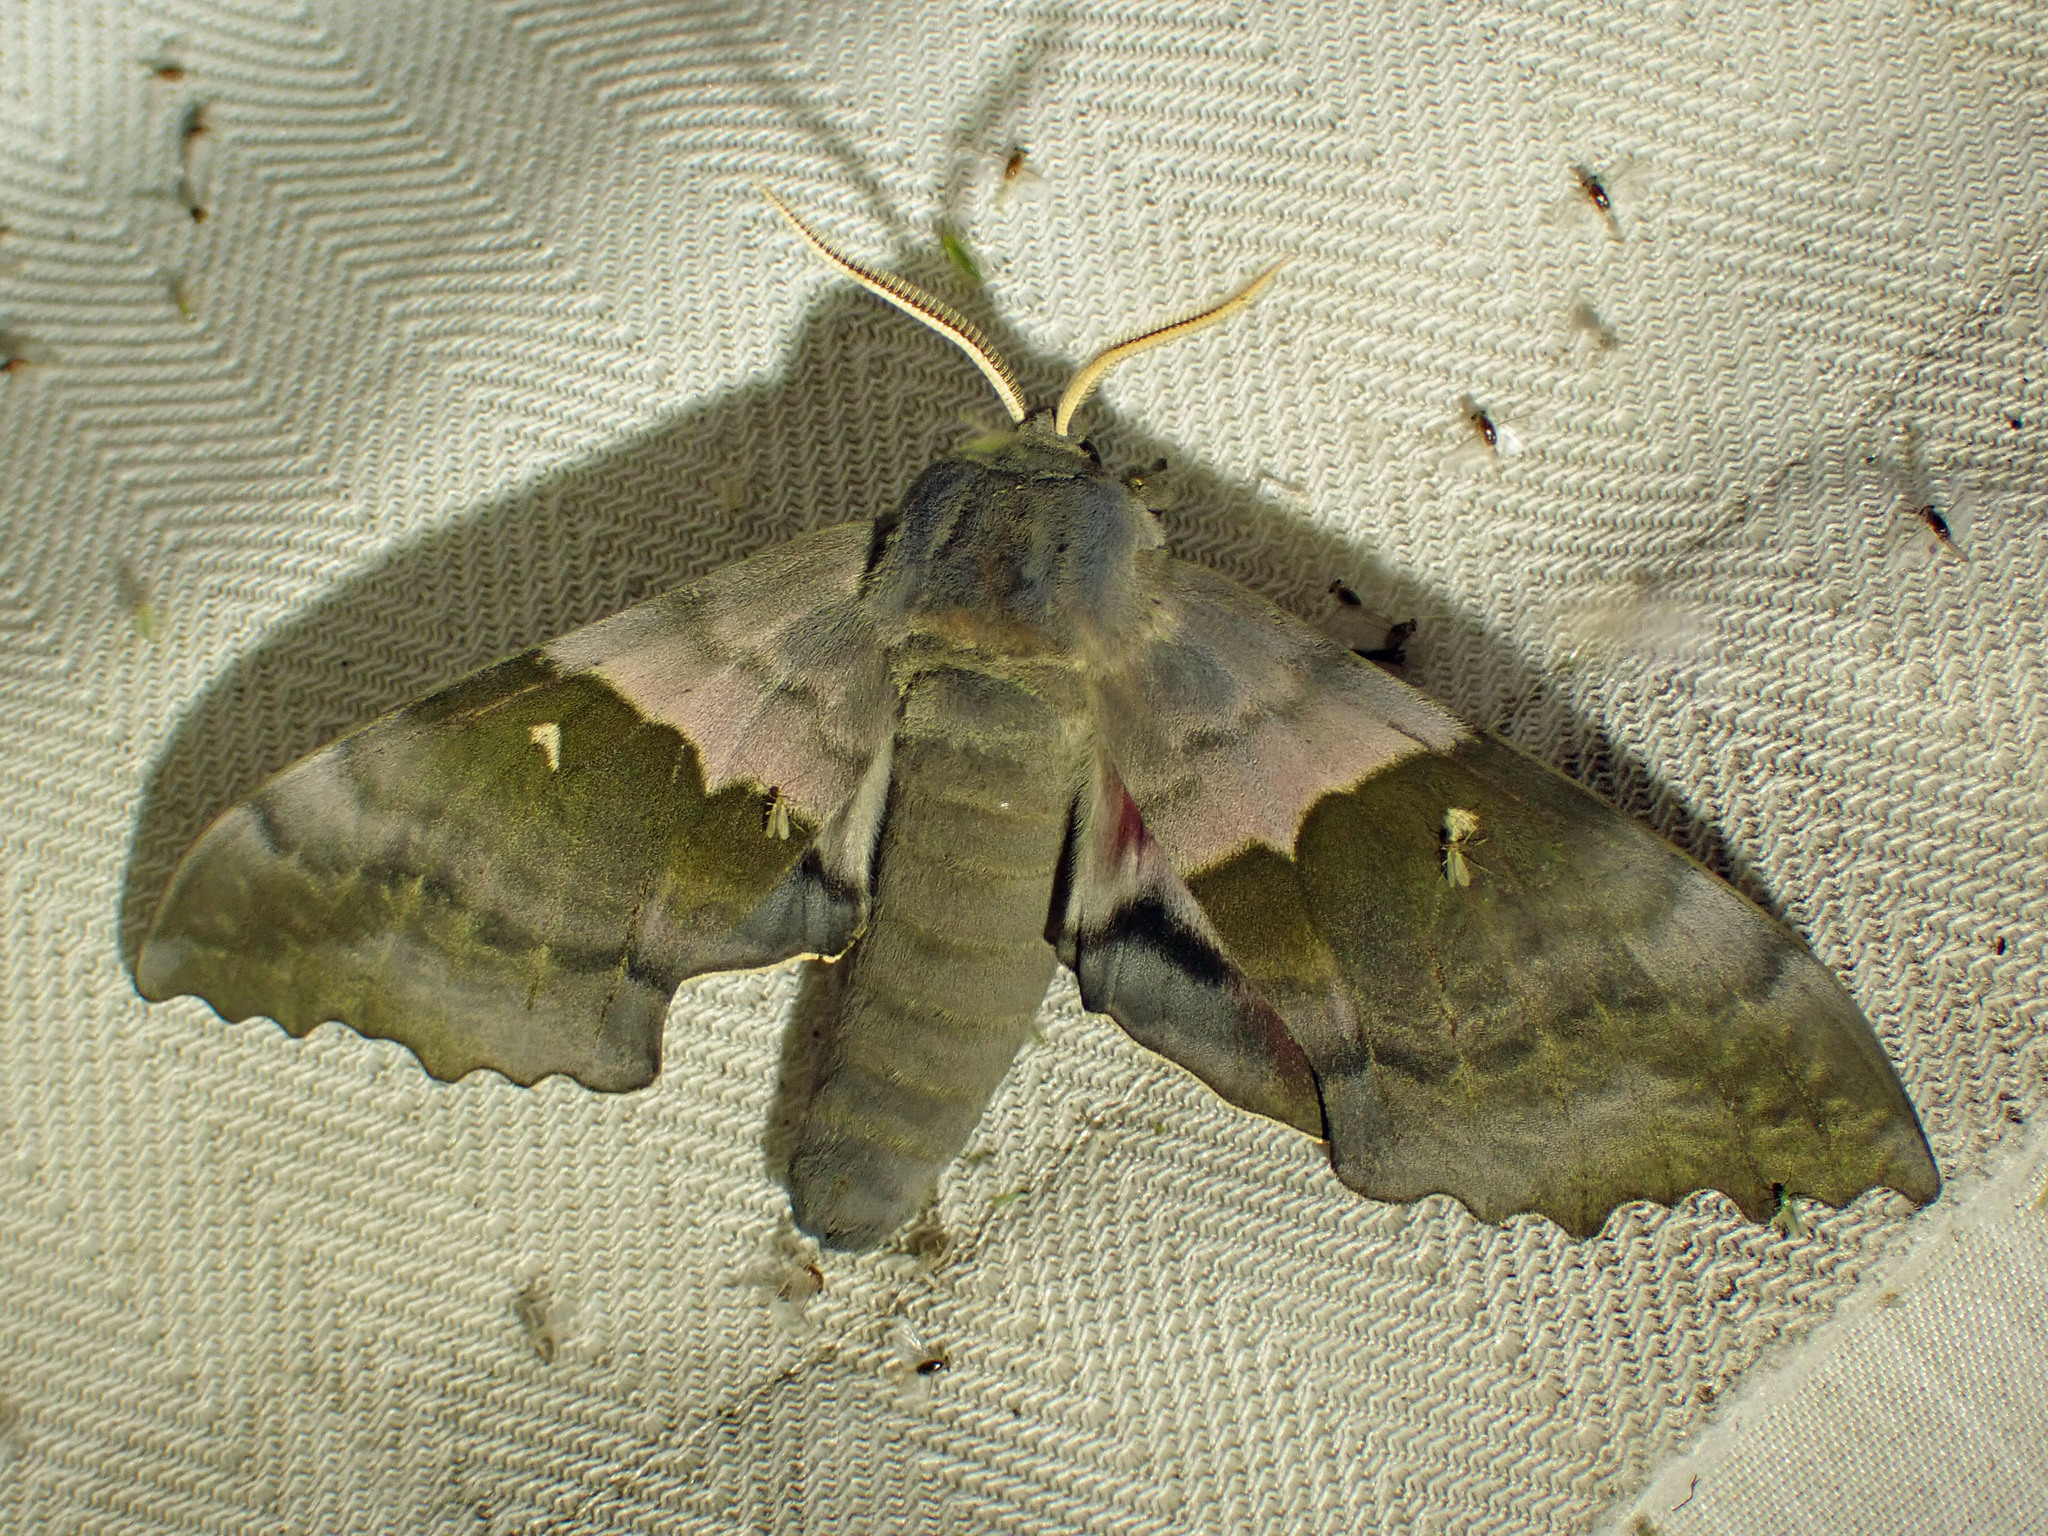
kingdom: Animalia
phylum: Arthropoda
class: Insecta
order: Lepidoptera
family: Sphingidae
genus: Pachysphinx
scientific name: Pachysphinx modesta
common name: Big poplar sphinx
